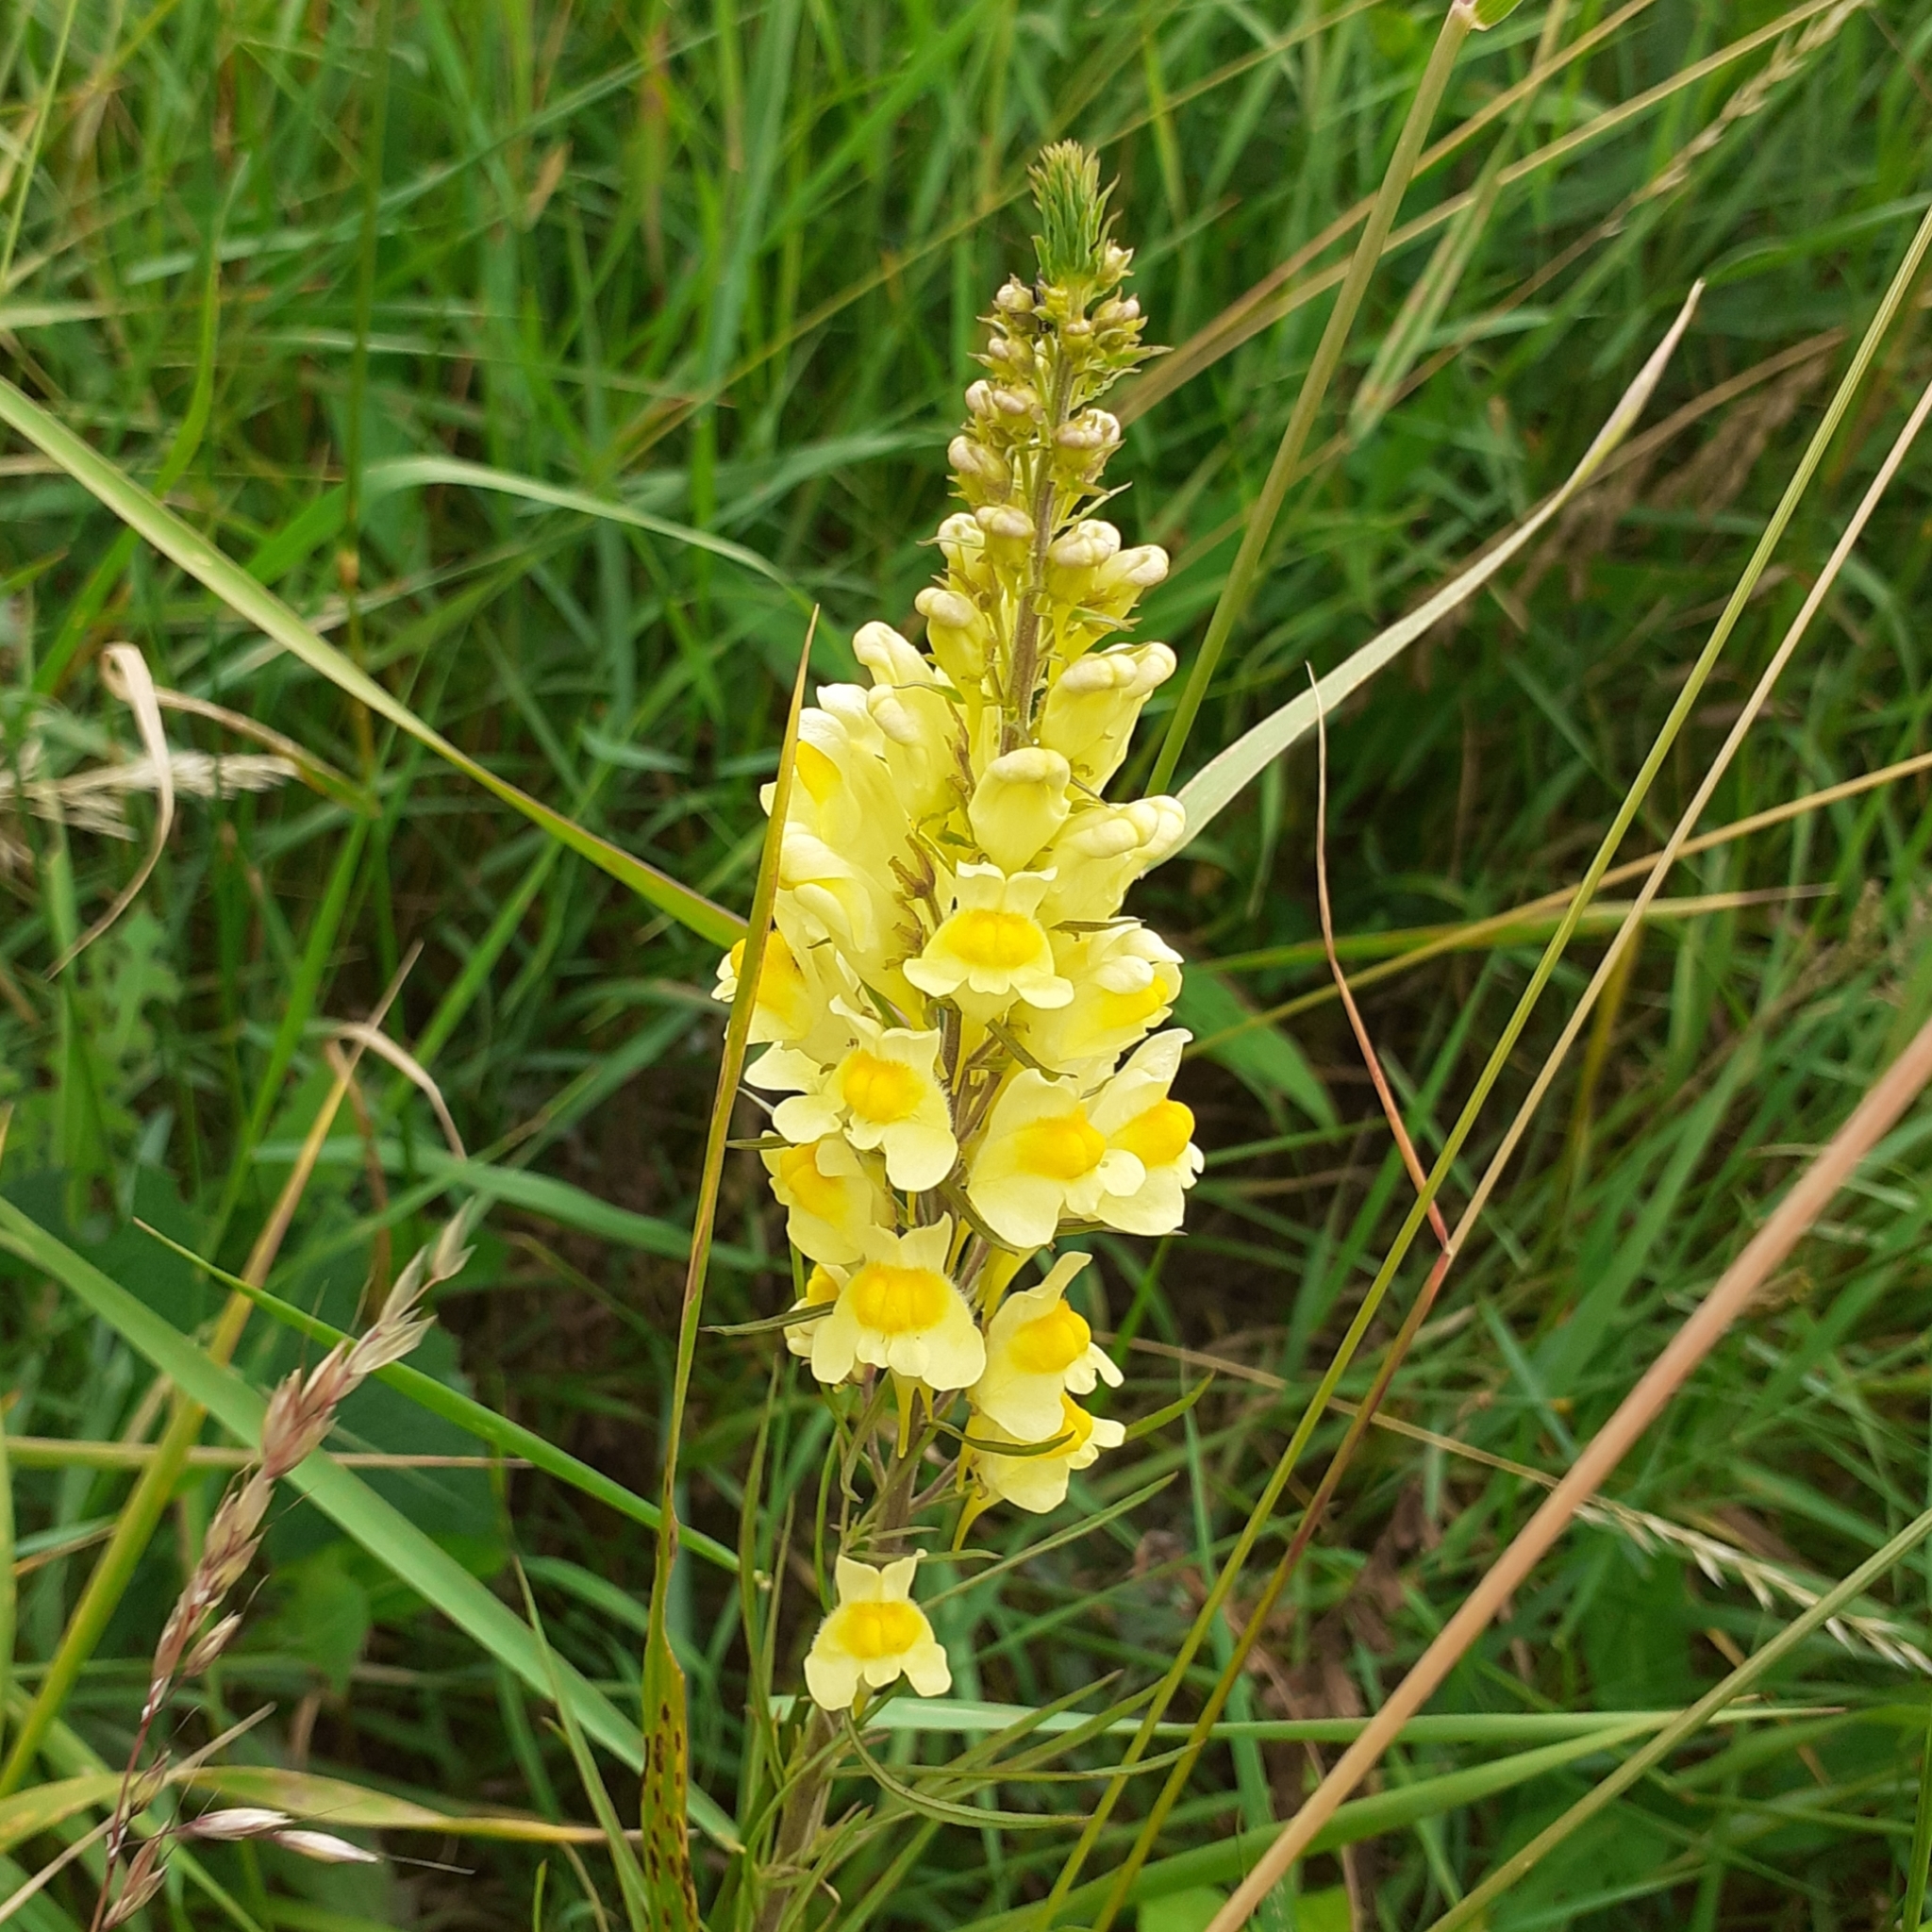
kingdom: Plantae
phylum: Tracheophyta
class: Magnoliopsida
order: Lamiales
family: Plantaginaceae
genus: Linaria
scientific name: Linaria vulgaris
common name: Butter and eggs
